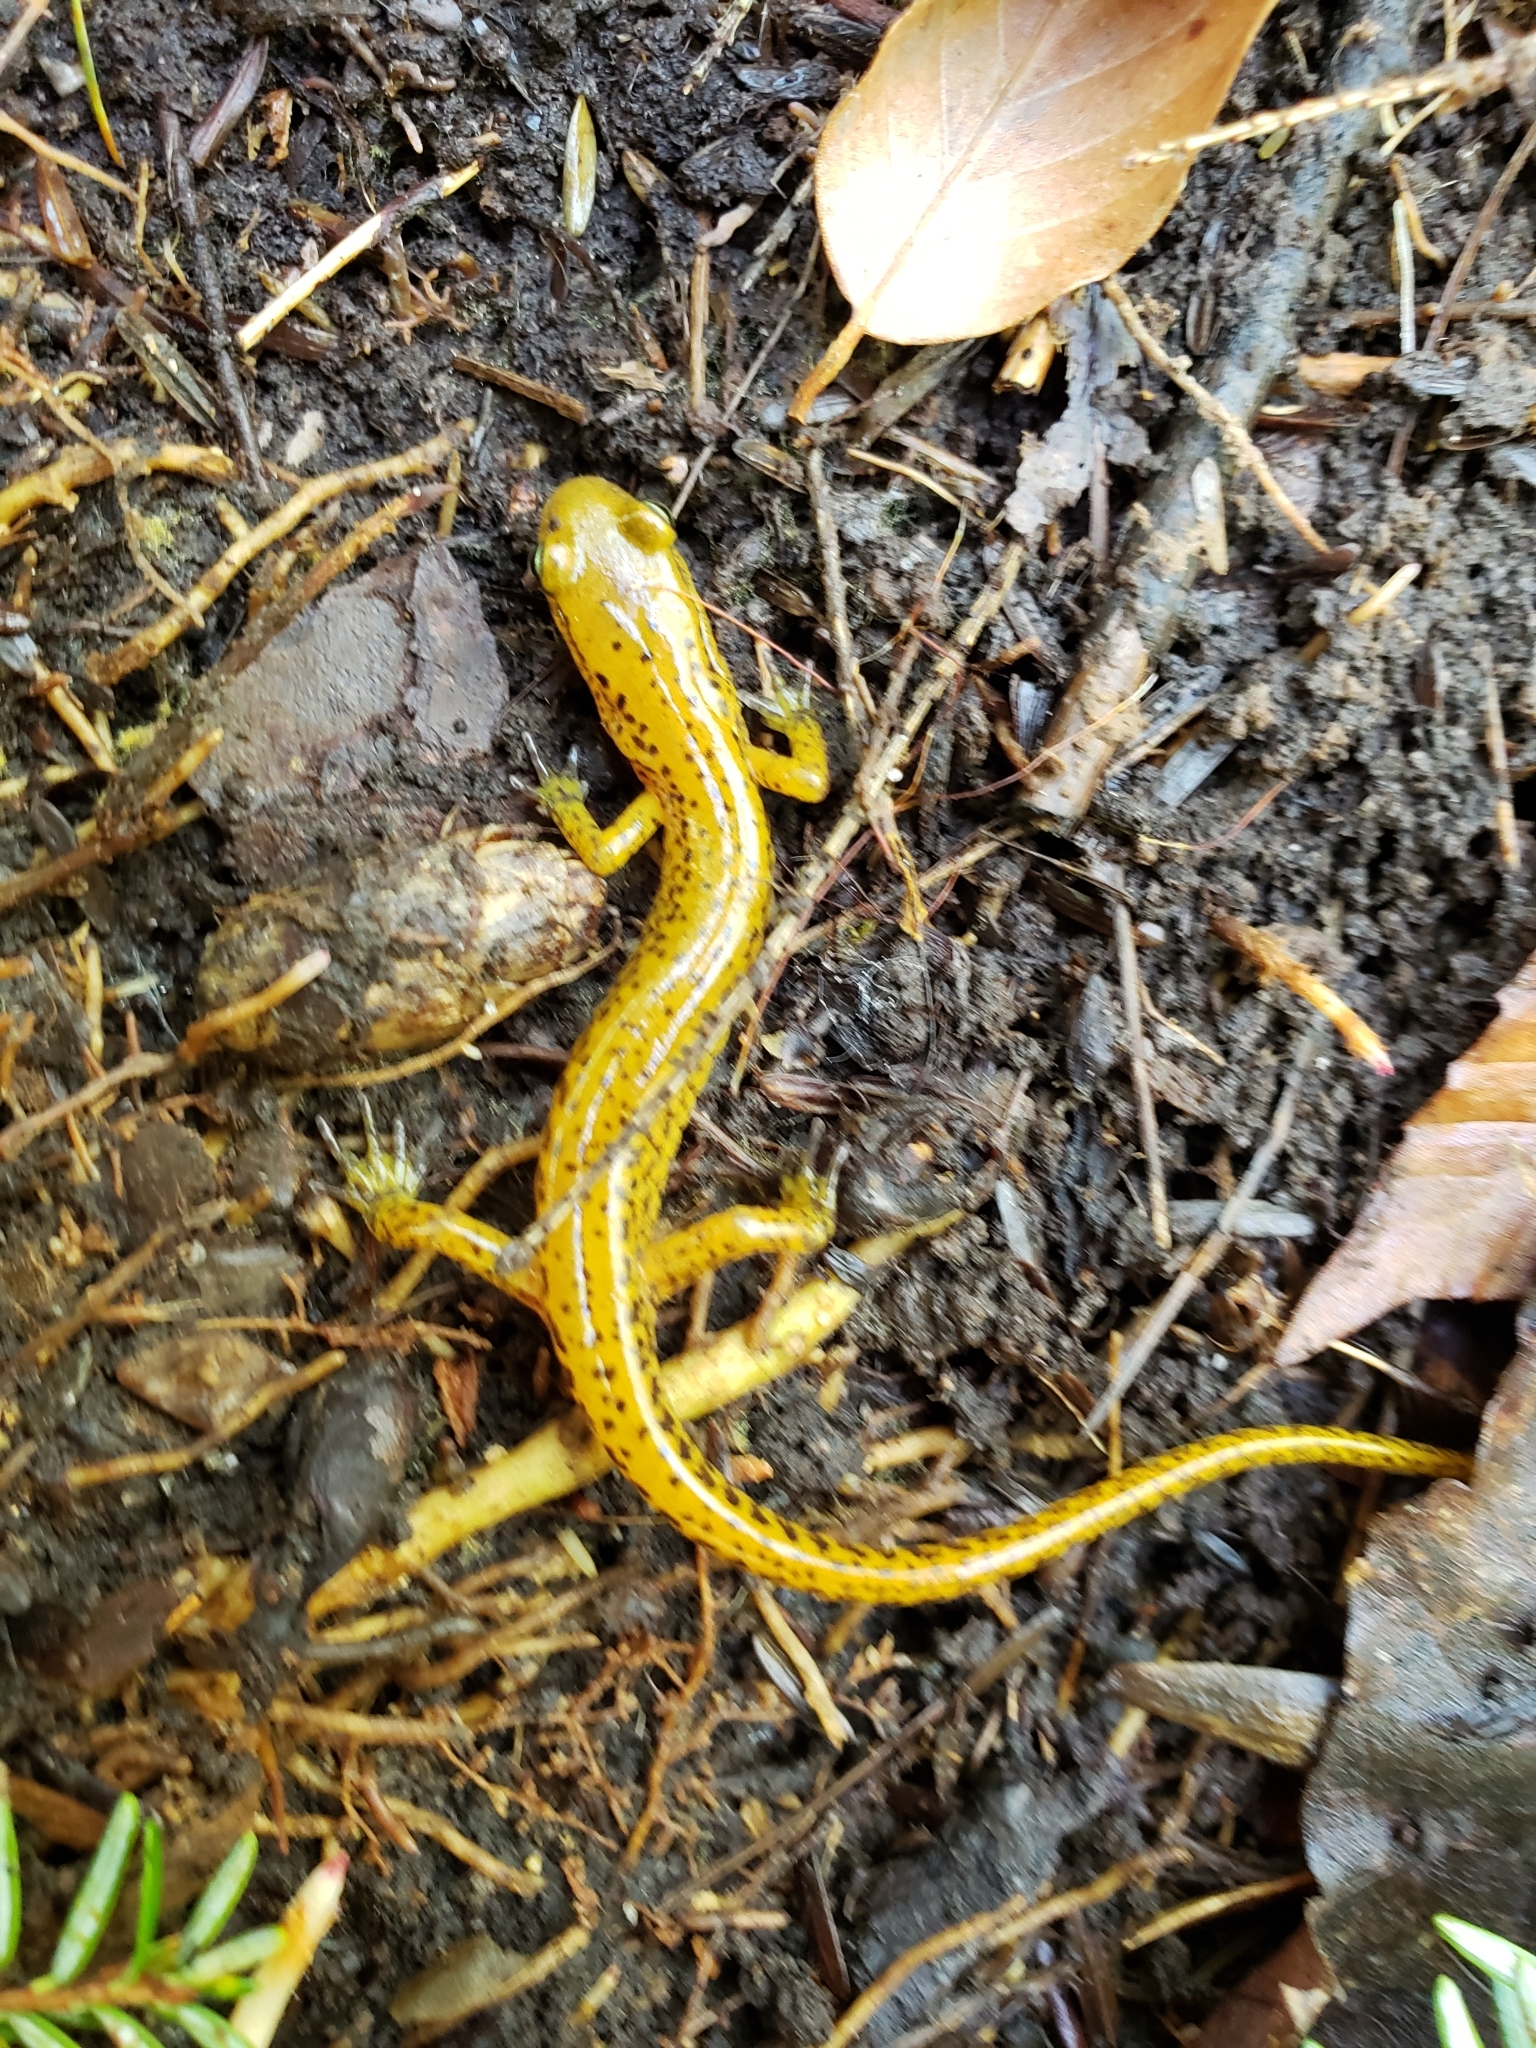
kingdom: Animalia
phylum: Chordata
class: Amphibia
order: Caudata
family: Plethodontidae
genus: Eurycea
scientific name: Eurycea longicauda
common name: Long-tailed salamander
